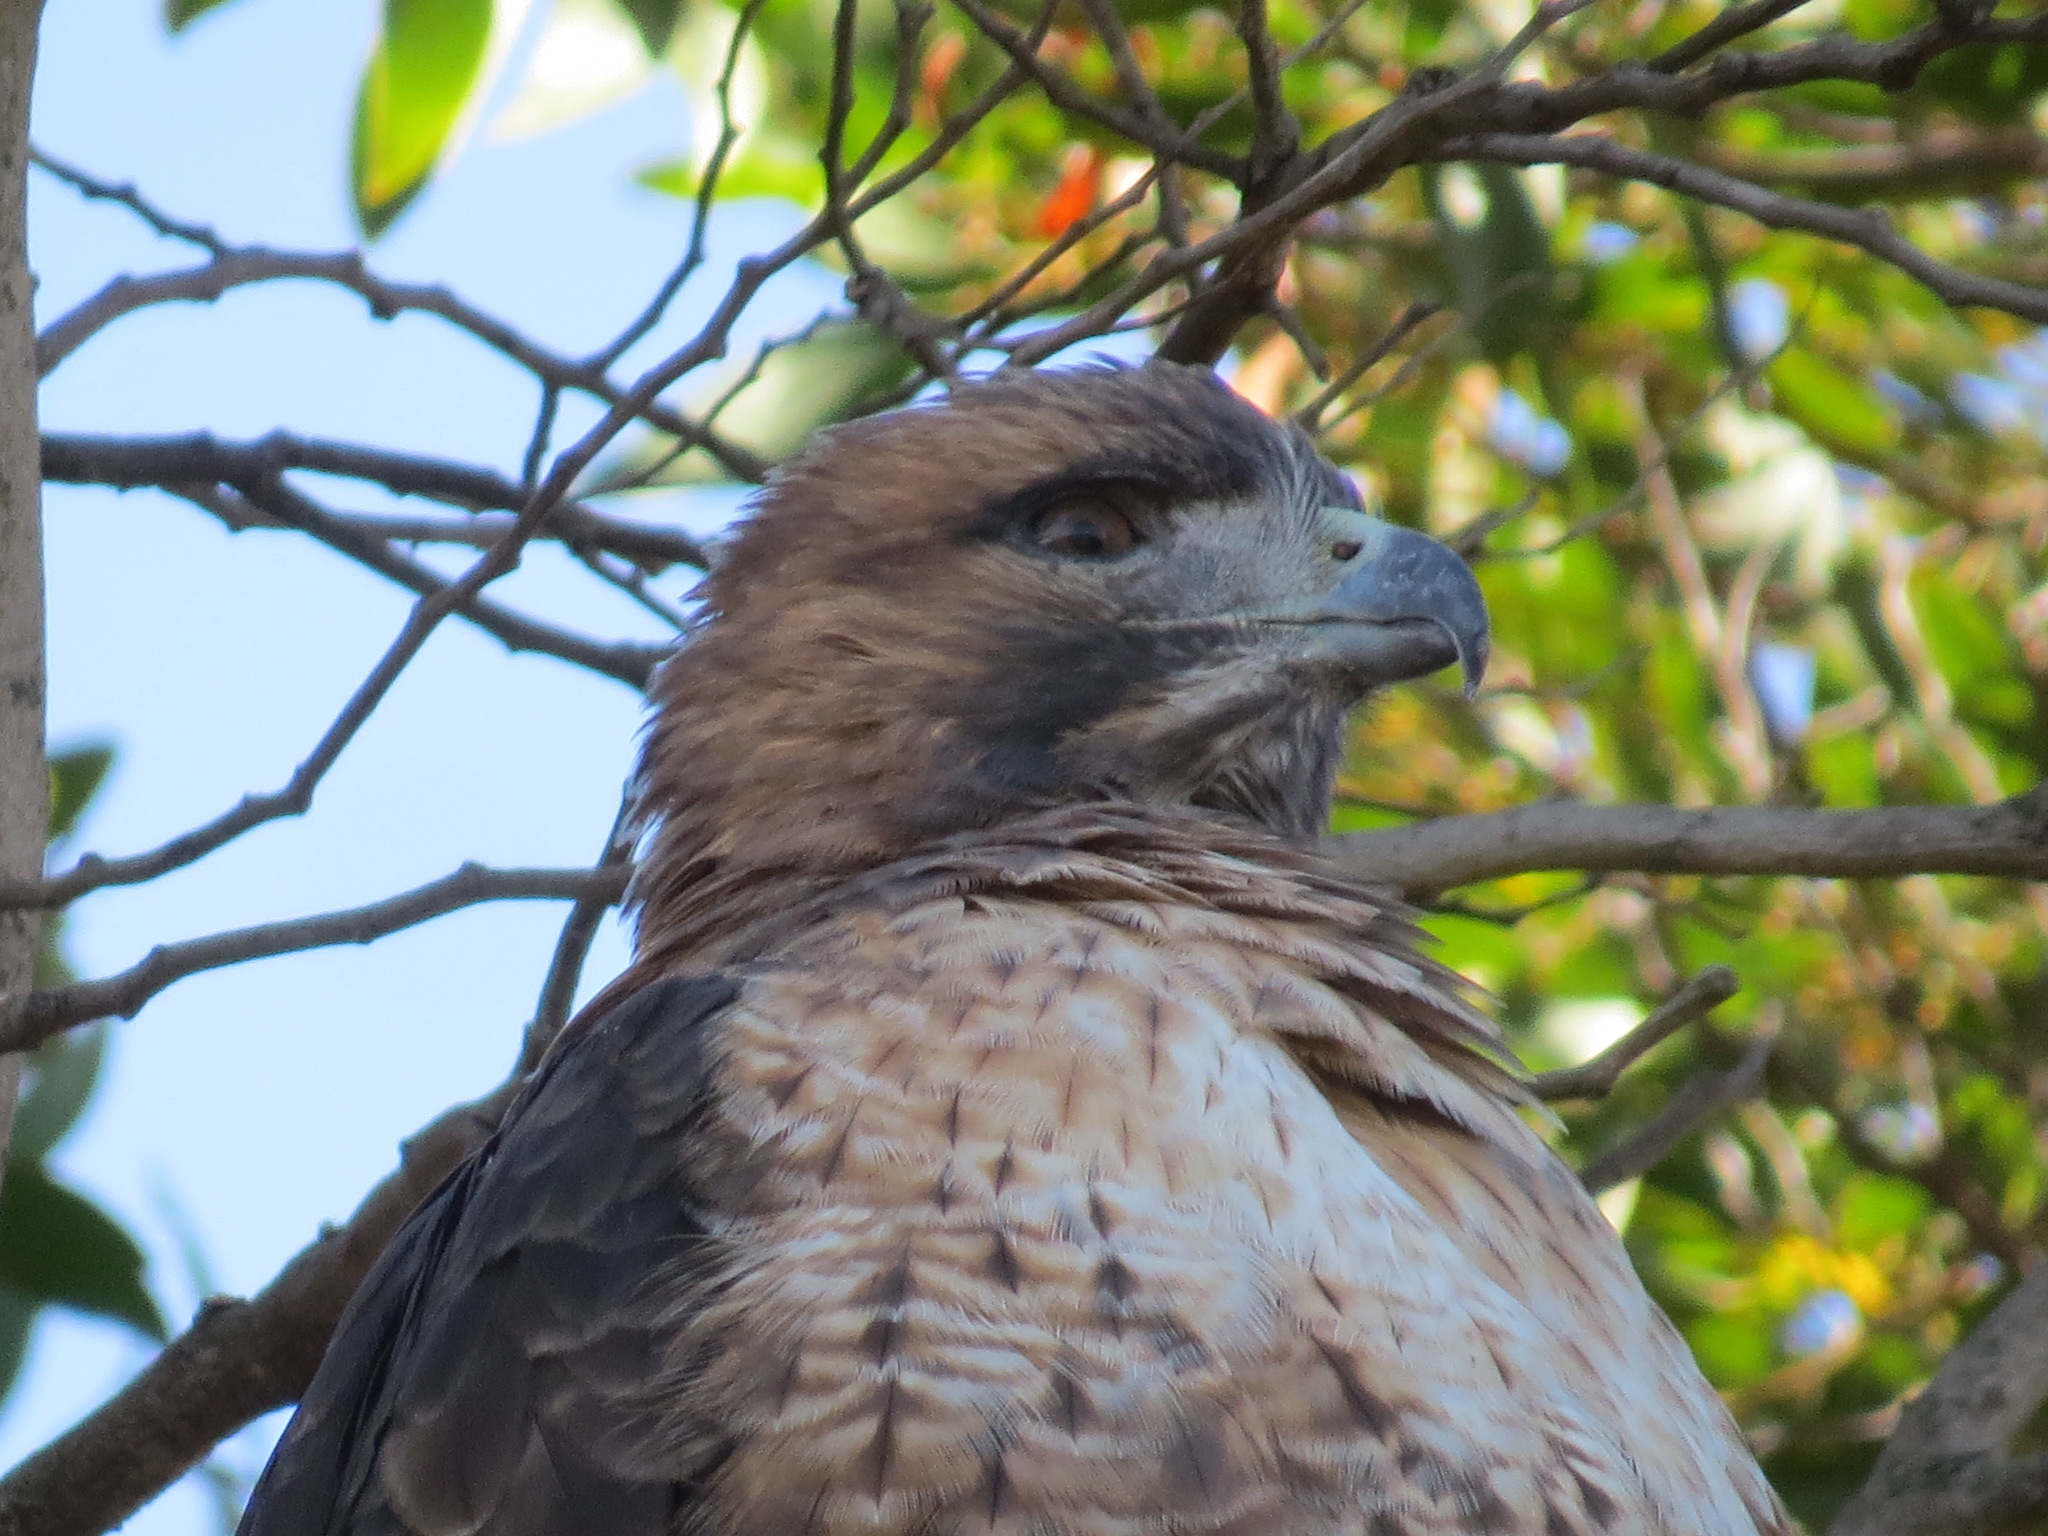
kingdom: Animalia
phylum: Chordata
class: Aves
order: Accipitriformes
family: Accipitridae
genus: Buteo
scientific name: Buteo jamaicensis
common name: Red-tailed hawk
